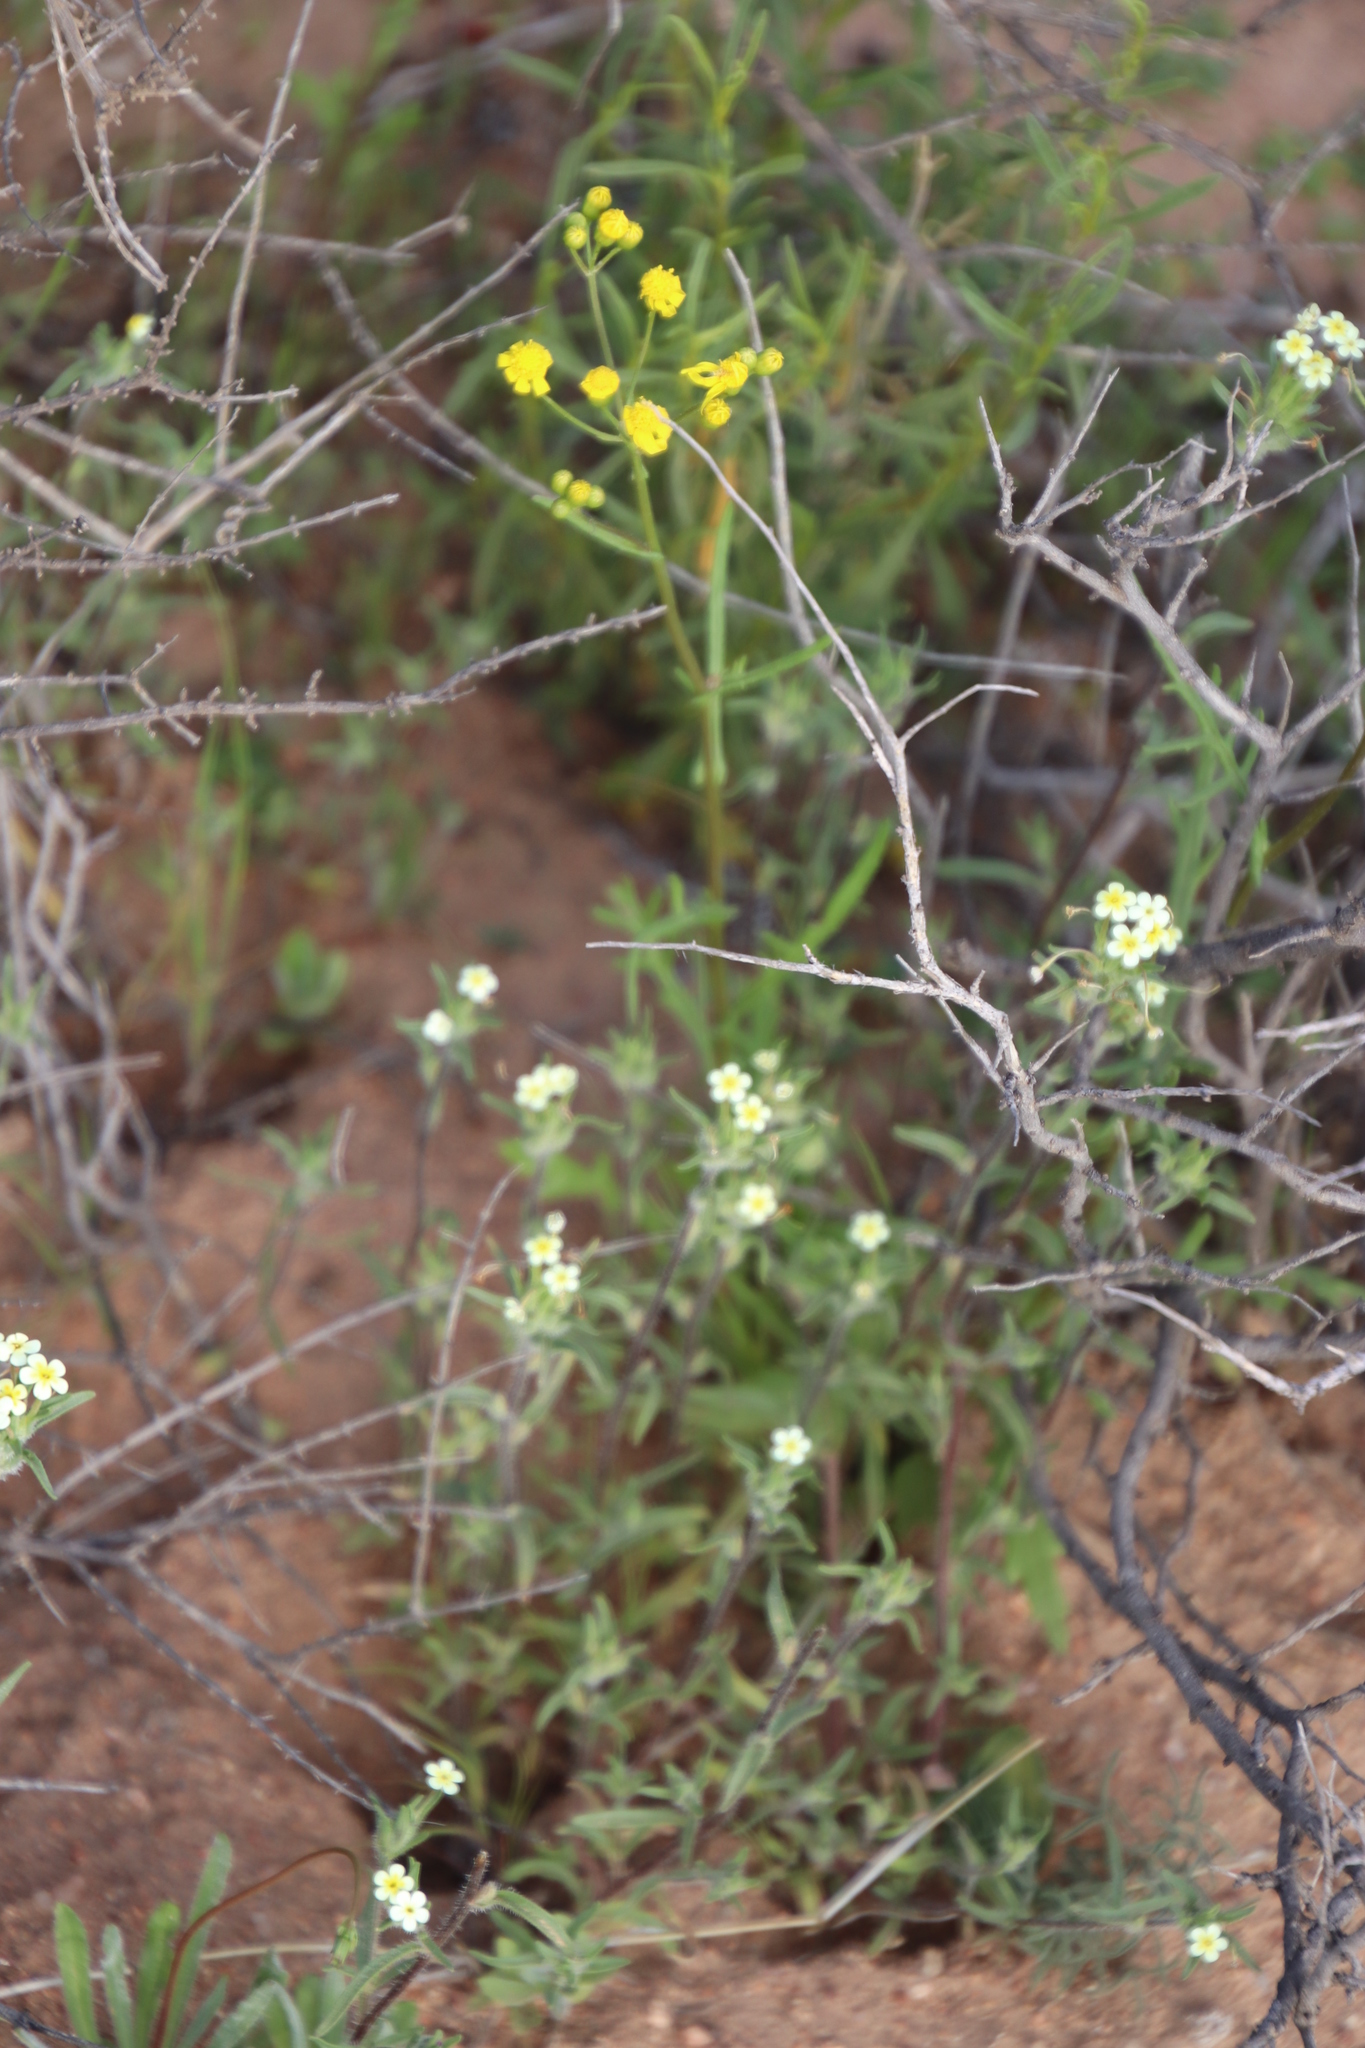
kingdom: Plantae
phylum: Tracheophyta
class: Magnoliopsida
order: Asterales
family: Asteraceae
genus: Senecio
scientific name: Senecio abruptus
